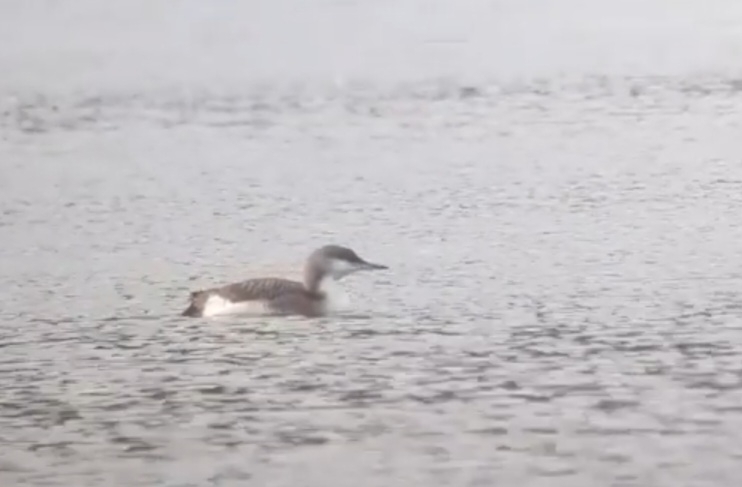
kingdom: Animalia
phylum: Chordata
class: Aves
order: Gaviiformes
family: Gaviidae
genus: Gavia
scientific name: Gavia arctica
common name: Black-throated loon
